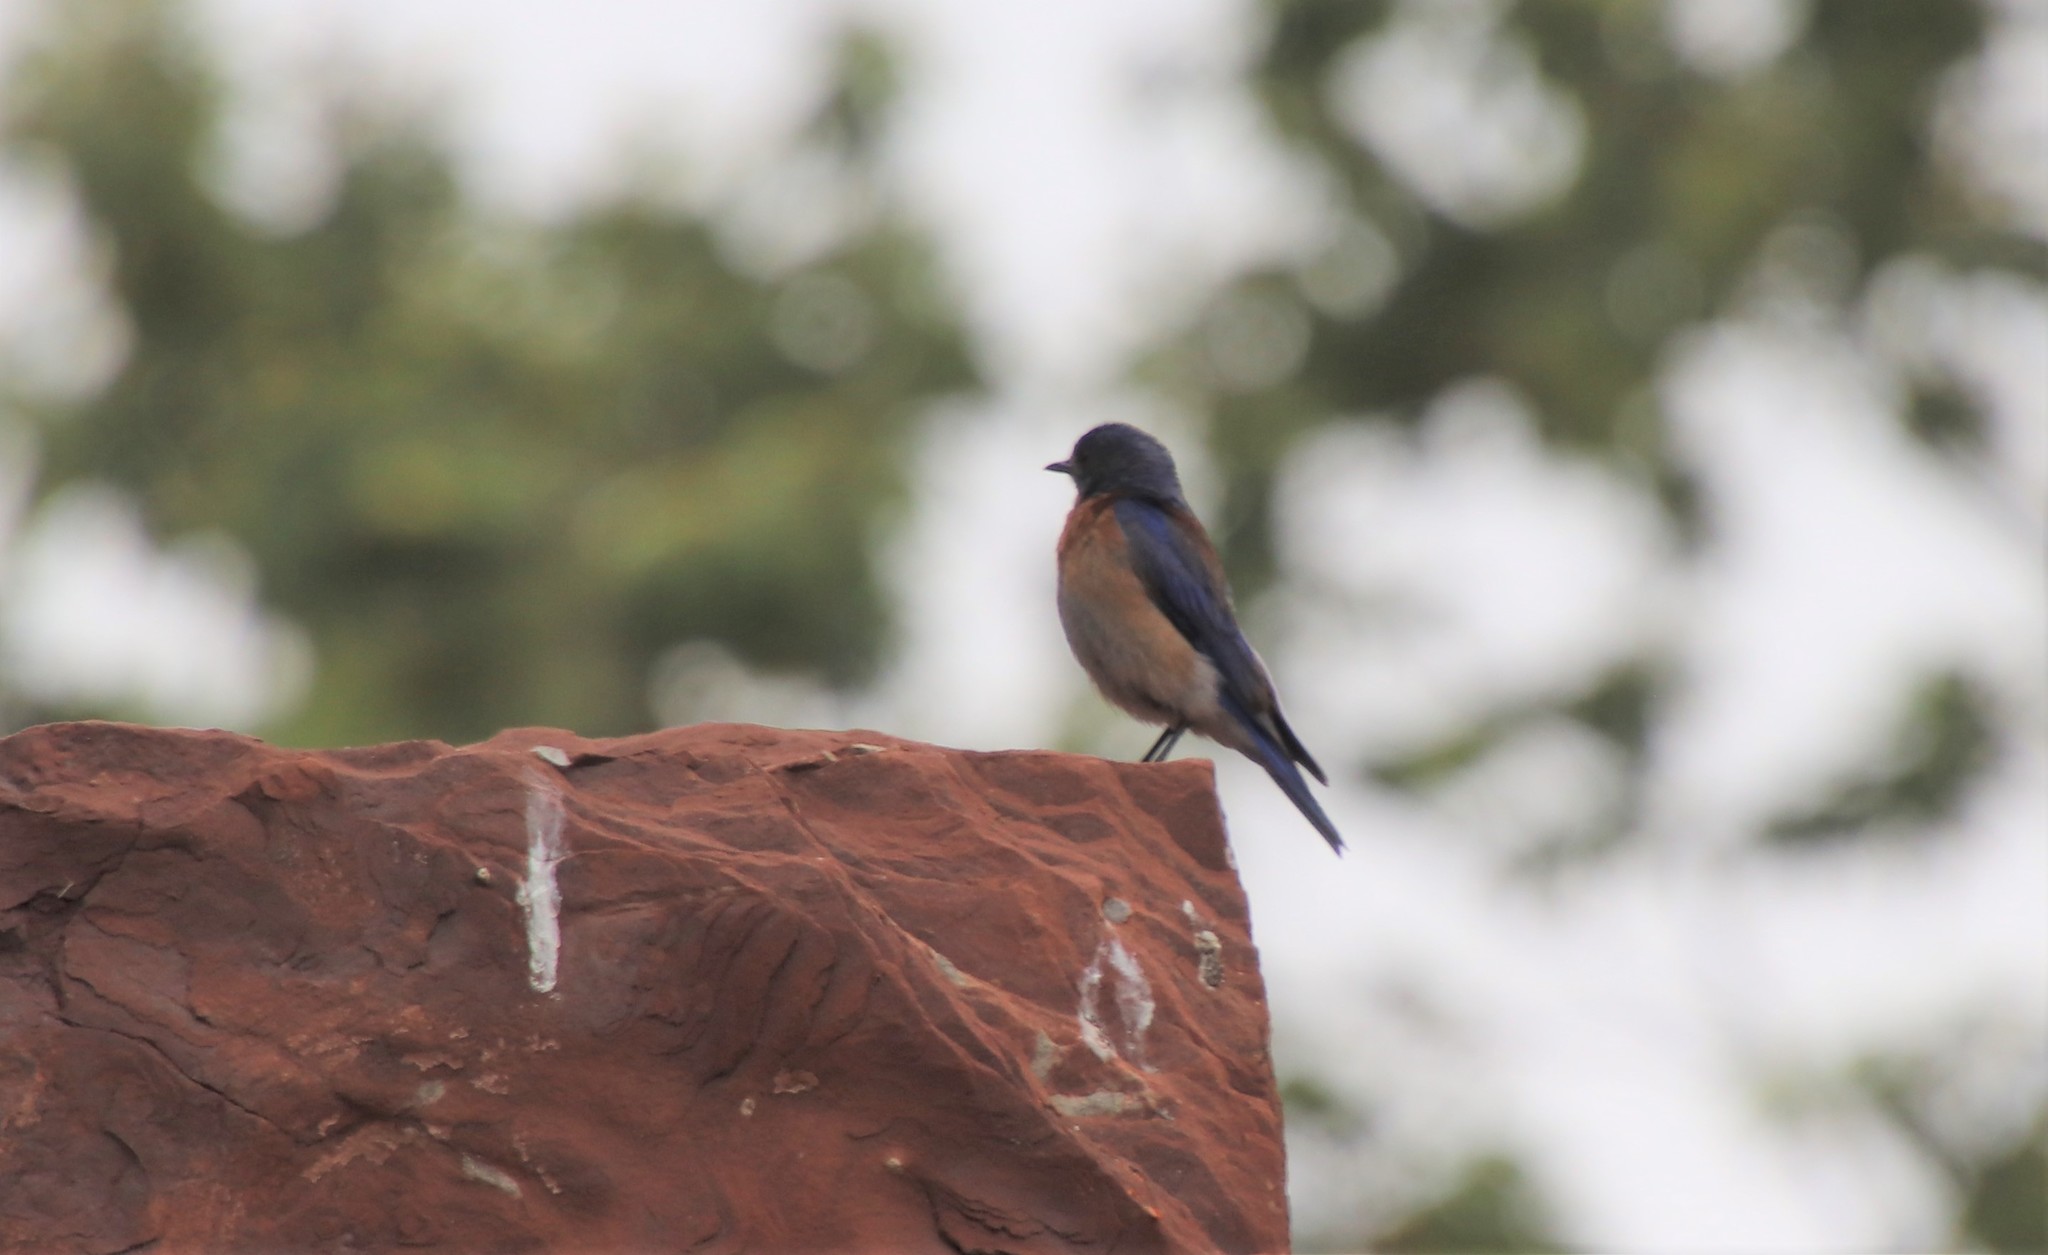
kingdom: Animalia
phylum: Chordata
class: Aves
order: Passeriformes
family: Turdidae
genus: Sialia
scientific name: Sialia mexicana
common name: Western bluebird
